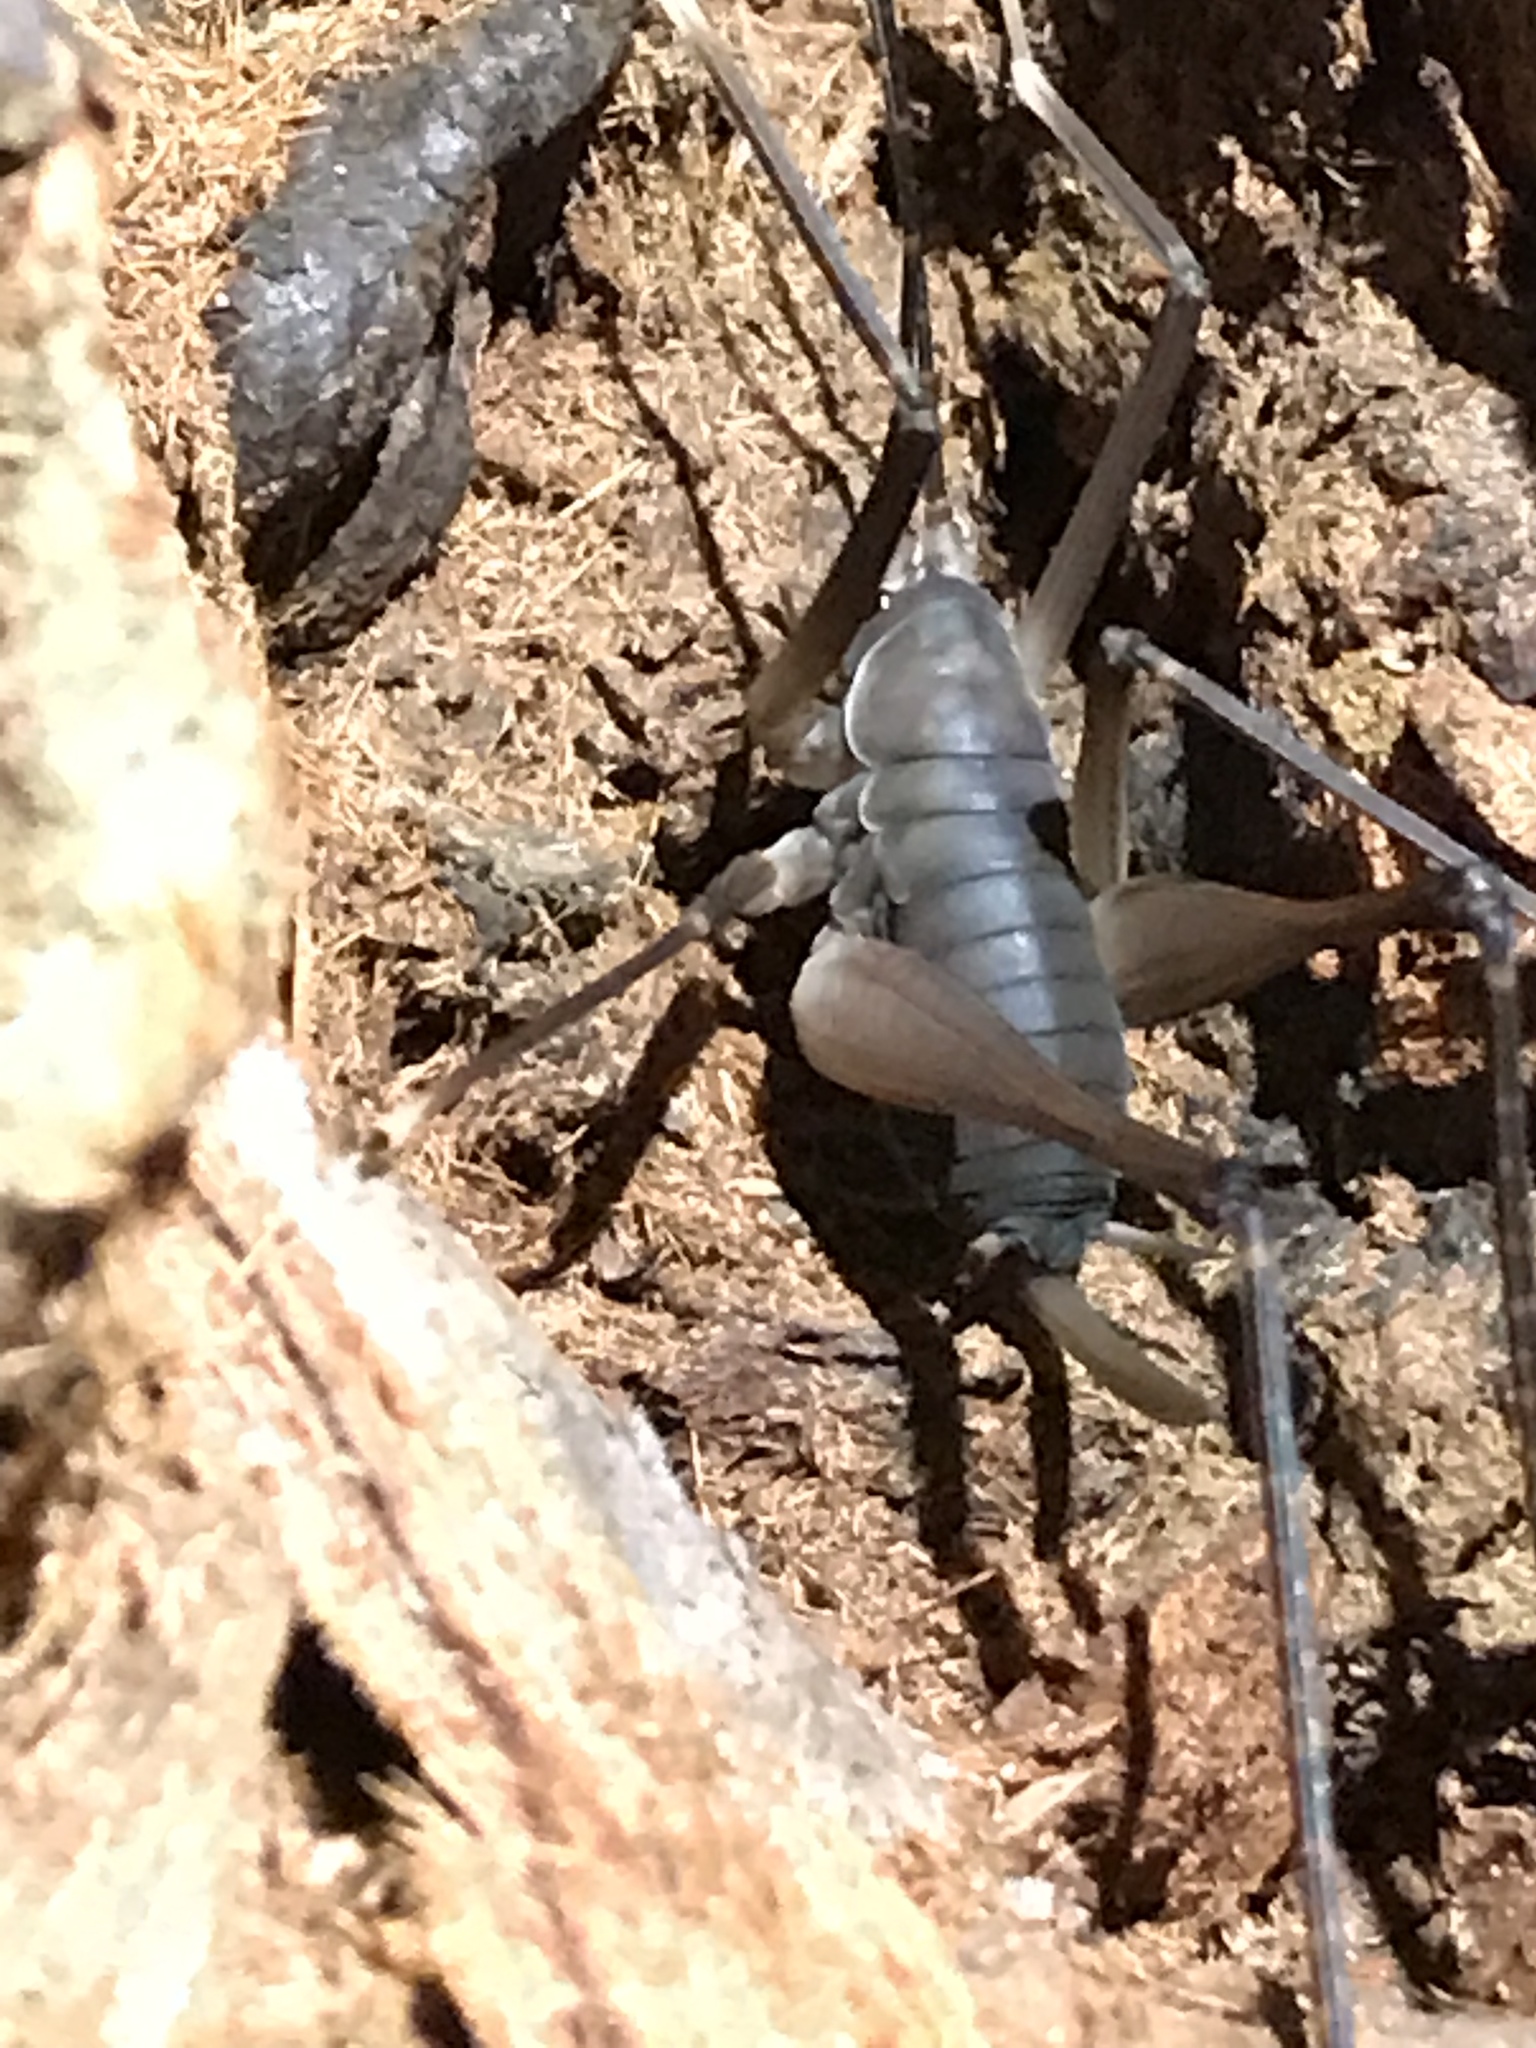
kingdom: Animalia
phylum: Arthropoda
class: Insecta
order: Orthoptera
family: Rhaphidophoridae
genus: Tropidischia
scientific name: Tropidischia xanthostoma
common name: Square-legged camel cricket
